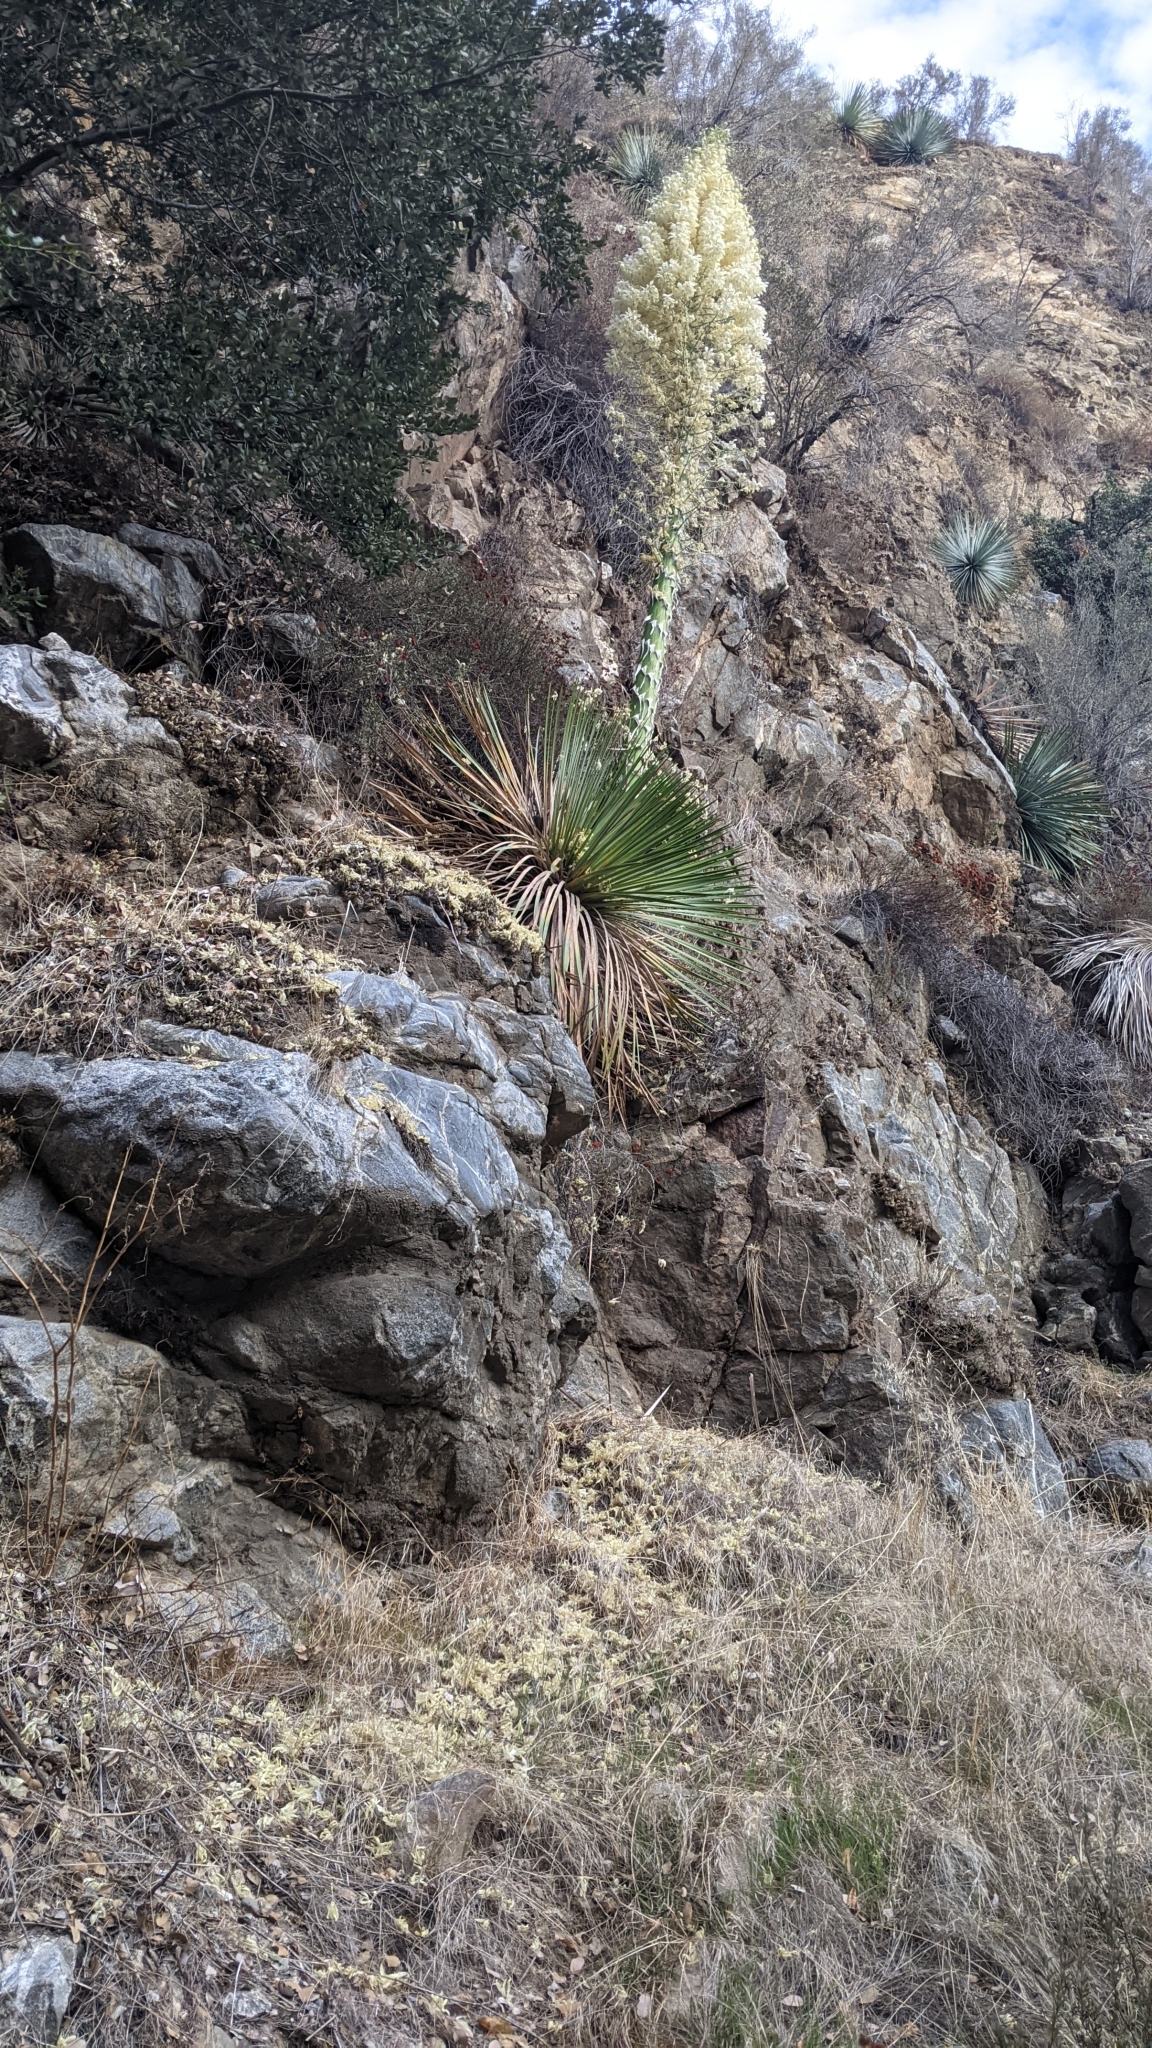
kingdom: Plantae
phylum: Tracheophyta
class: Liliopsida
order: Asparagales
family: Asparagaceae
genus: Hesperoyucca
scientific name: Hesperoyucca whipplei
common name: Our lord's-candle
